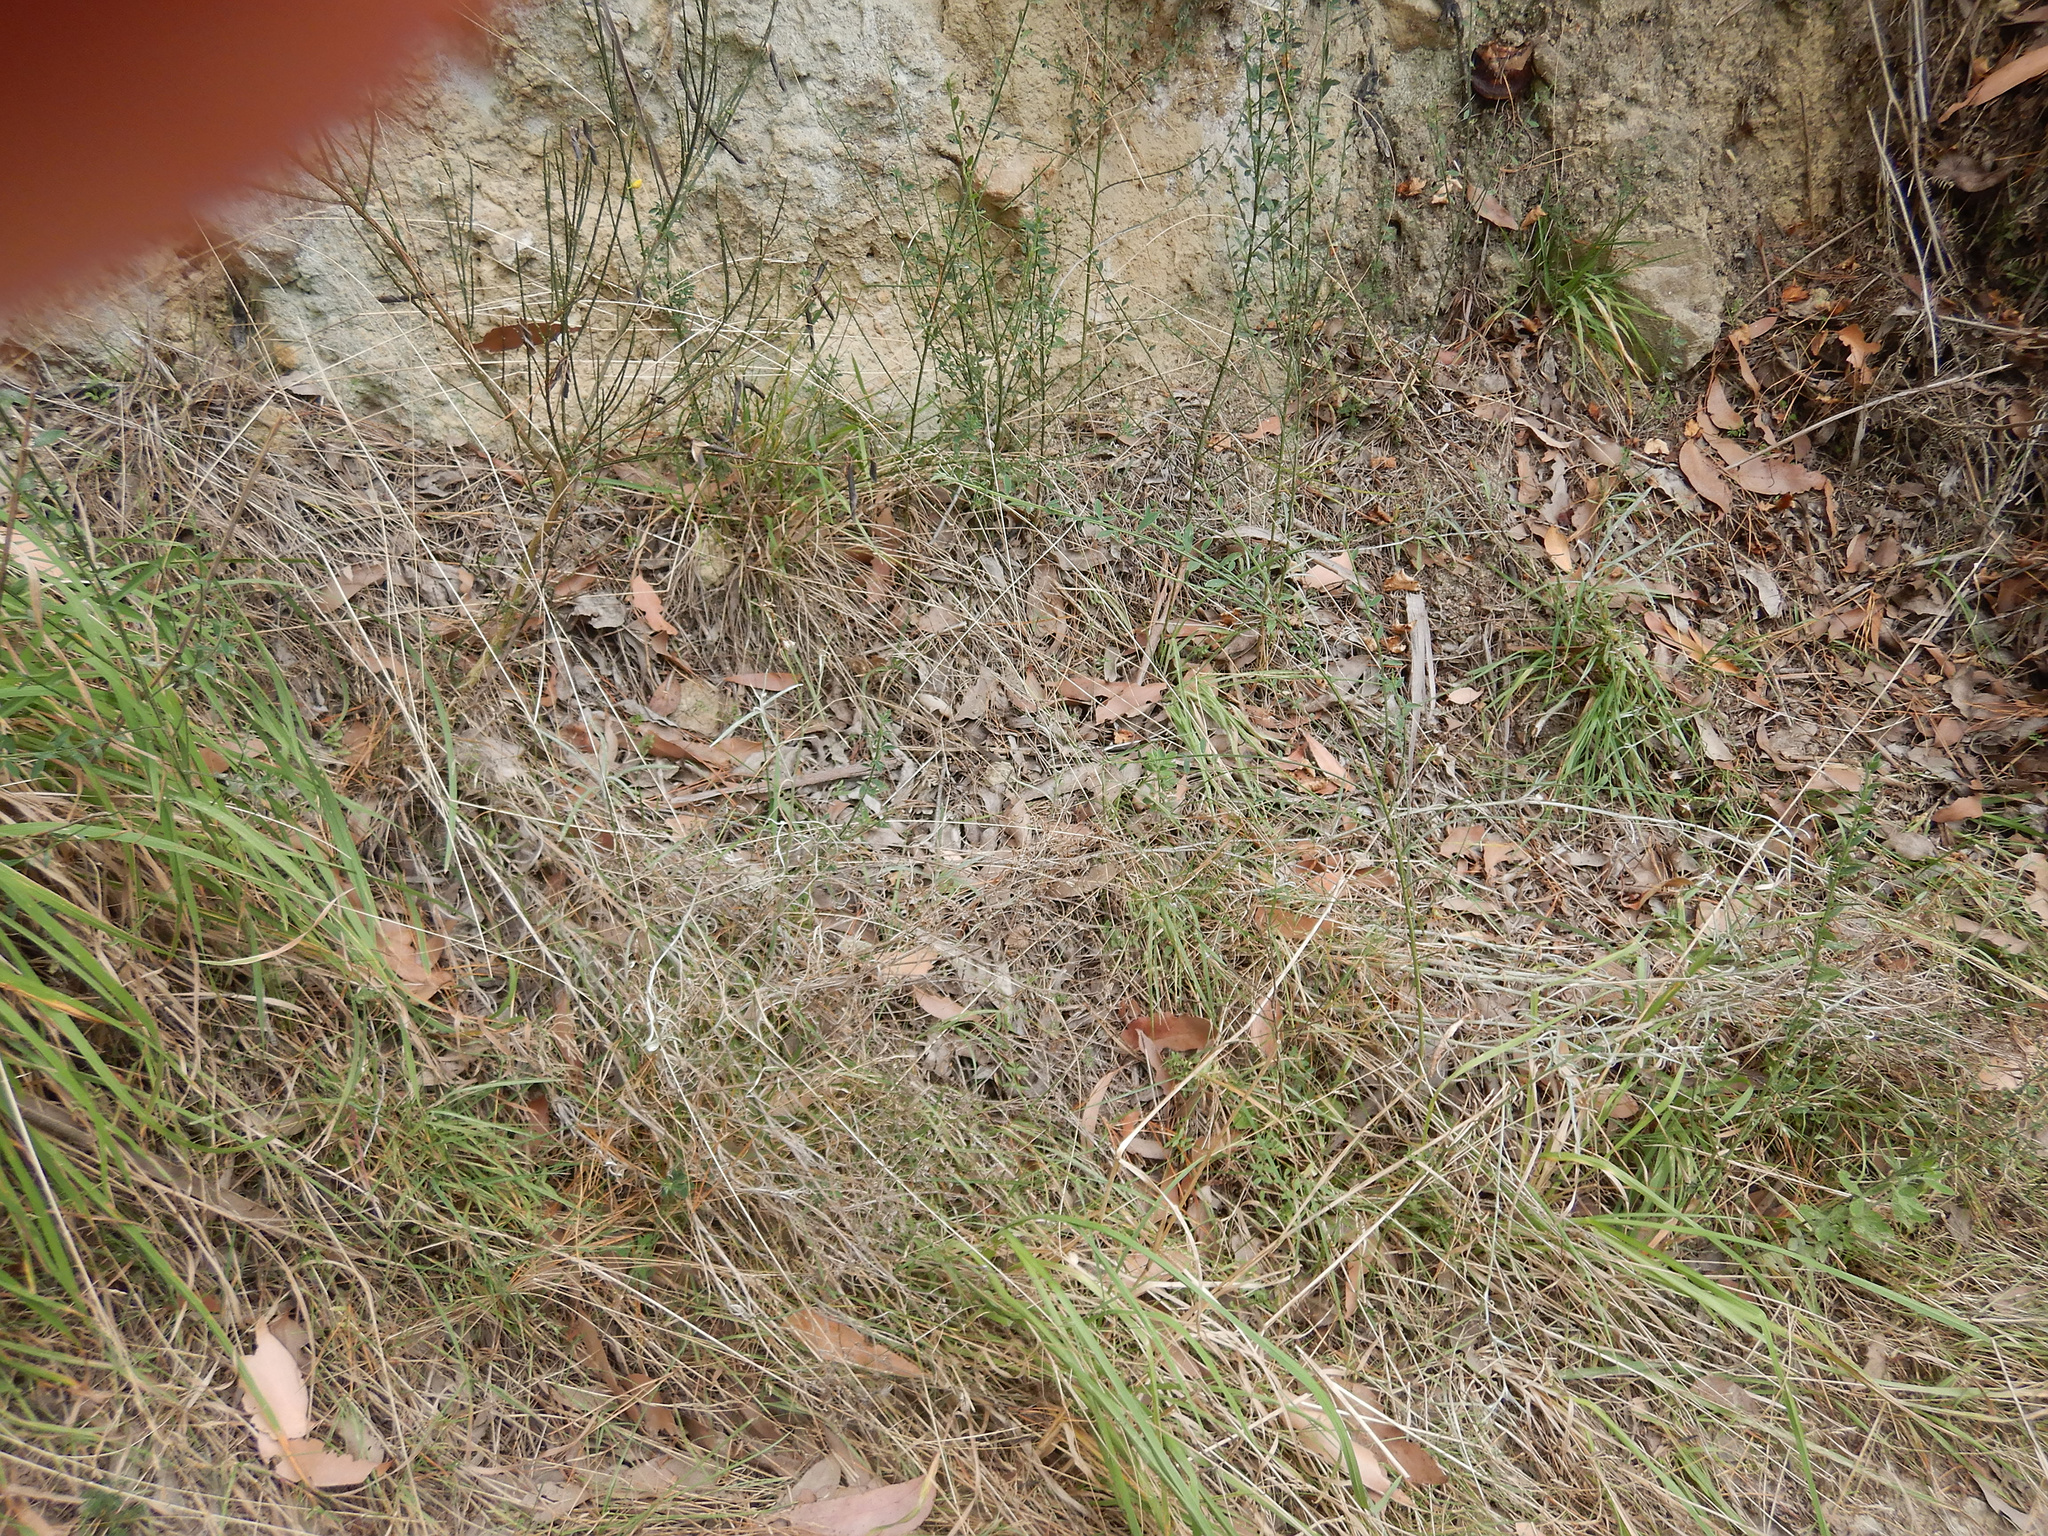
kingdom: Plantae
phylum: Tracheophyta
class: Magnoliopsida
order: Asterales
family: Asteraceae
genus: Senecio
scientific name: Senecio quadridentatus
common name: Cotton fireweed
